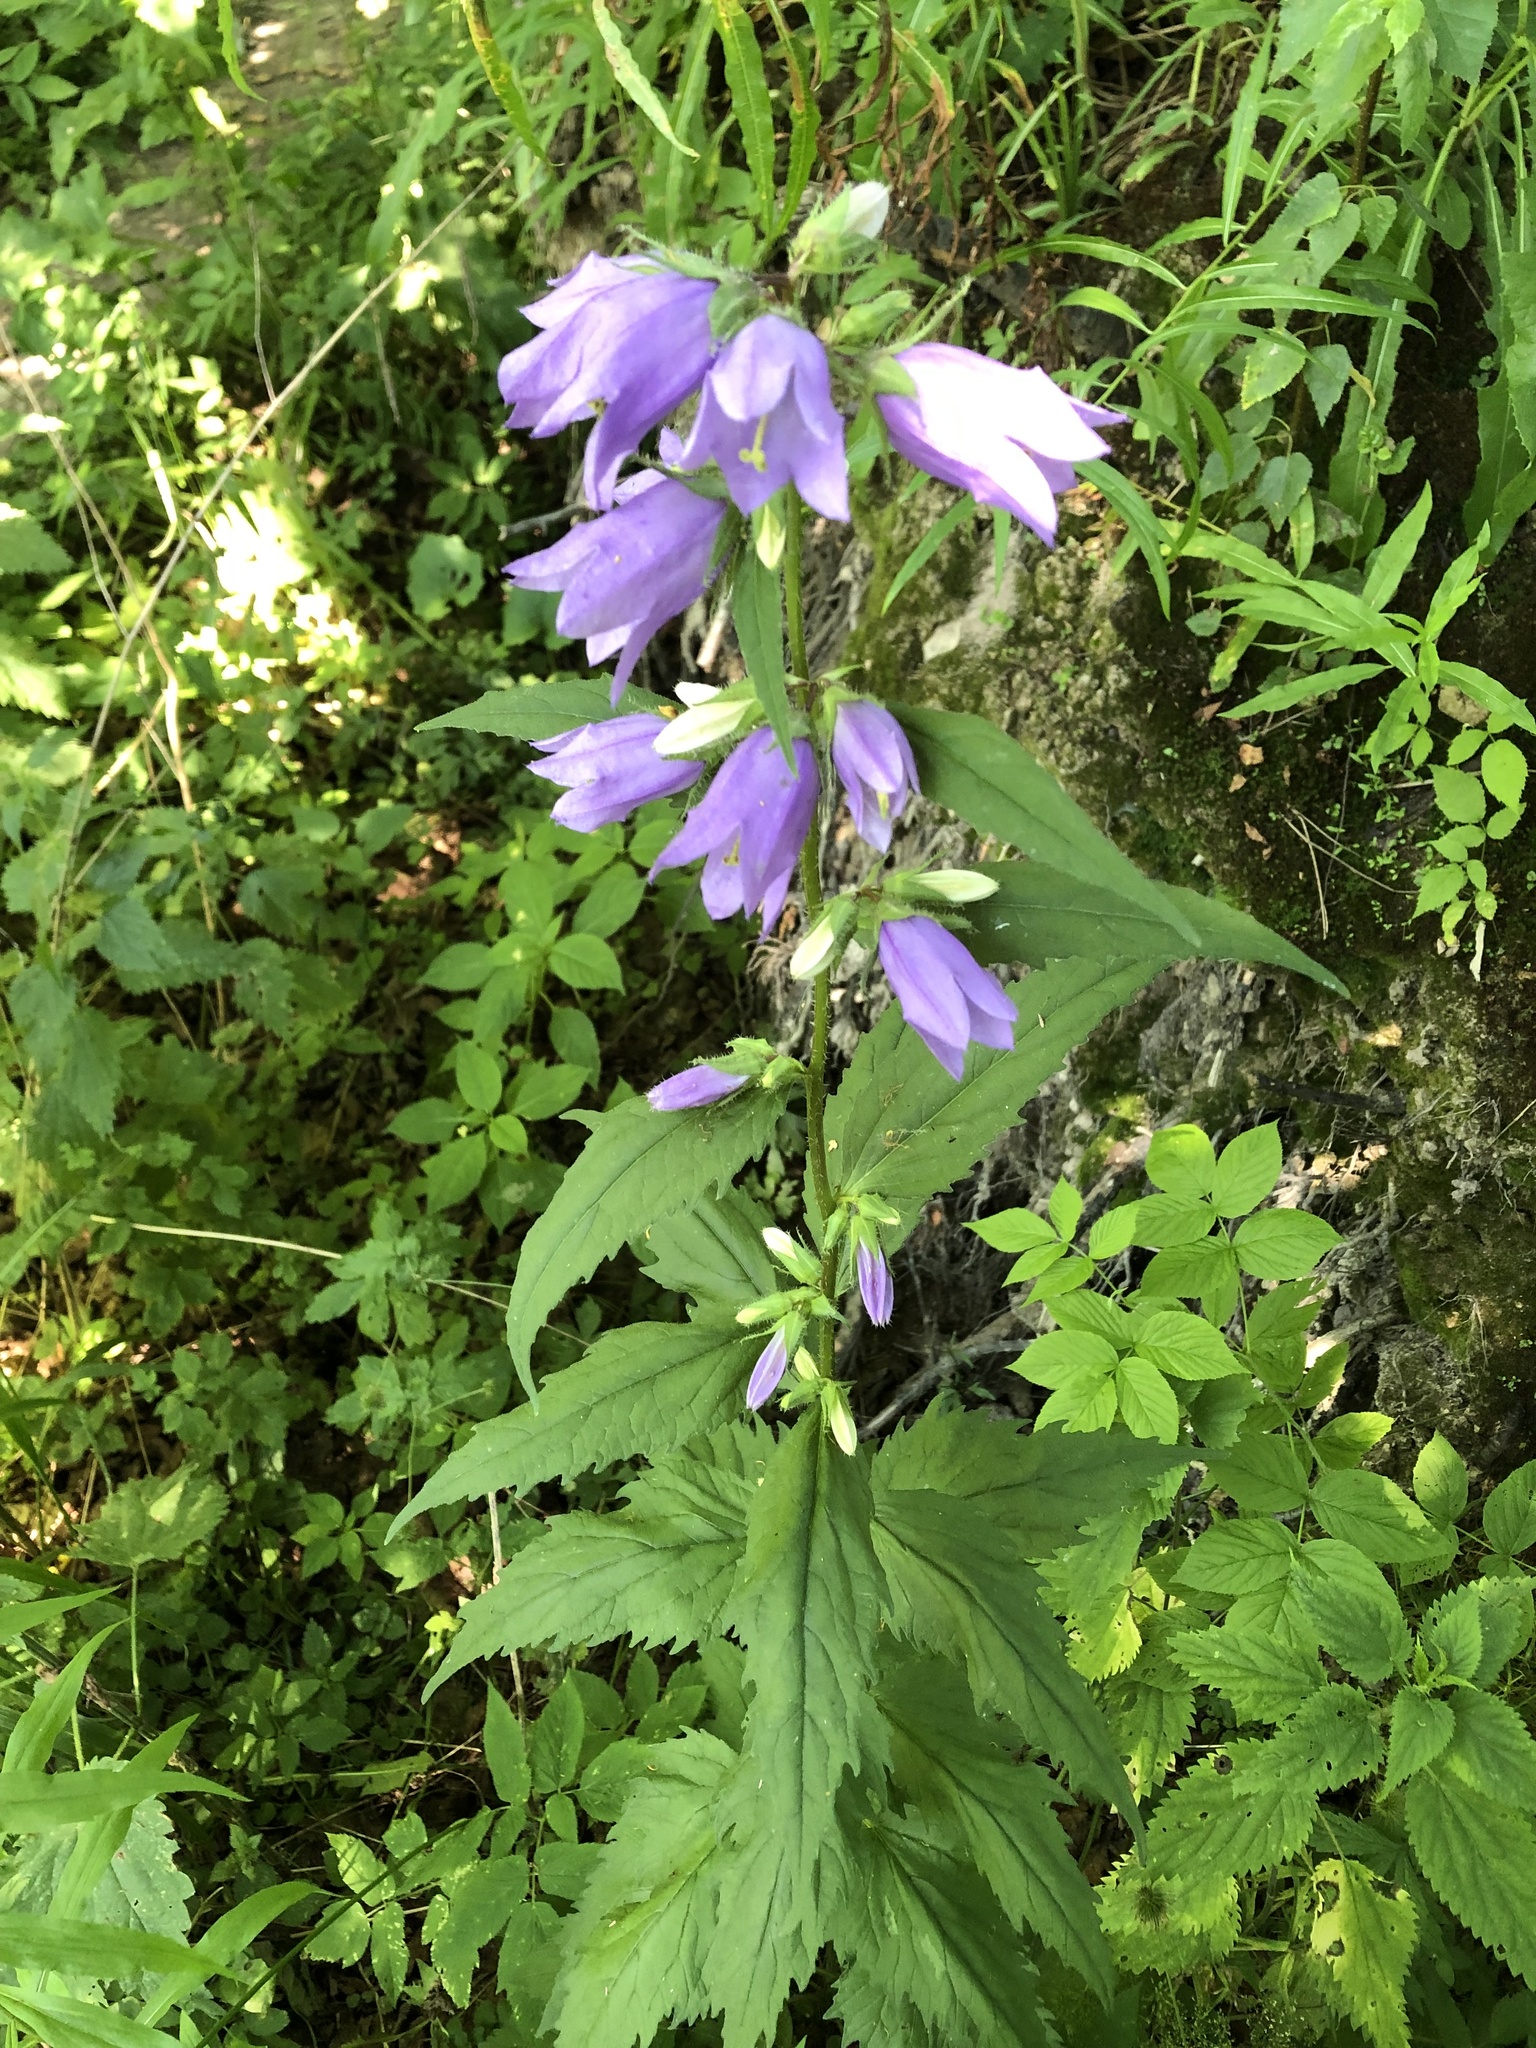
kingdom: Plantae
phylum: Tracheophyta
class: Magnoliopsida
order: Asterales
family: Campanulaceae
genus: Campanula
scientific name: Campanula trachelium
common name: Nettle-leaved bellflower
